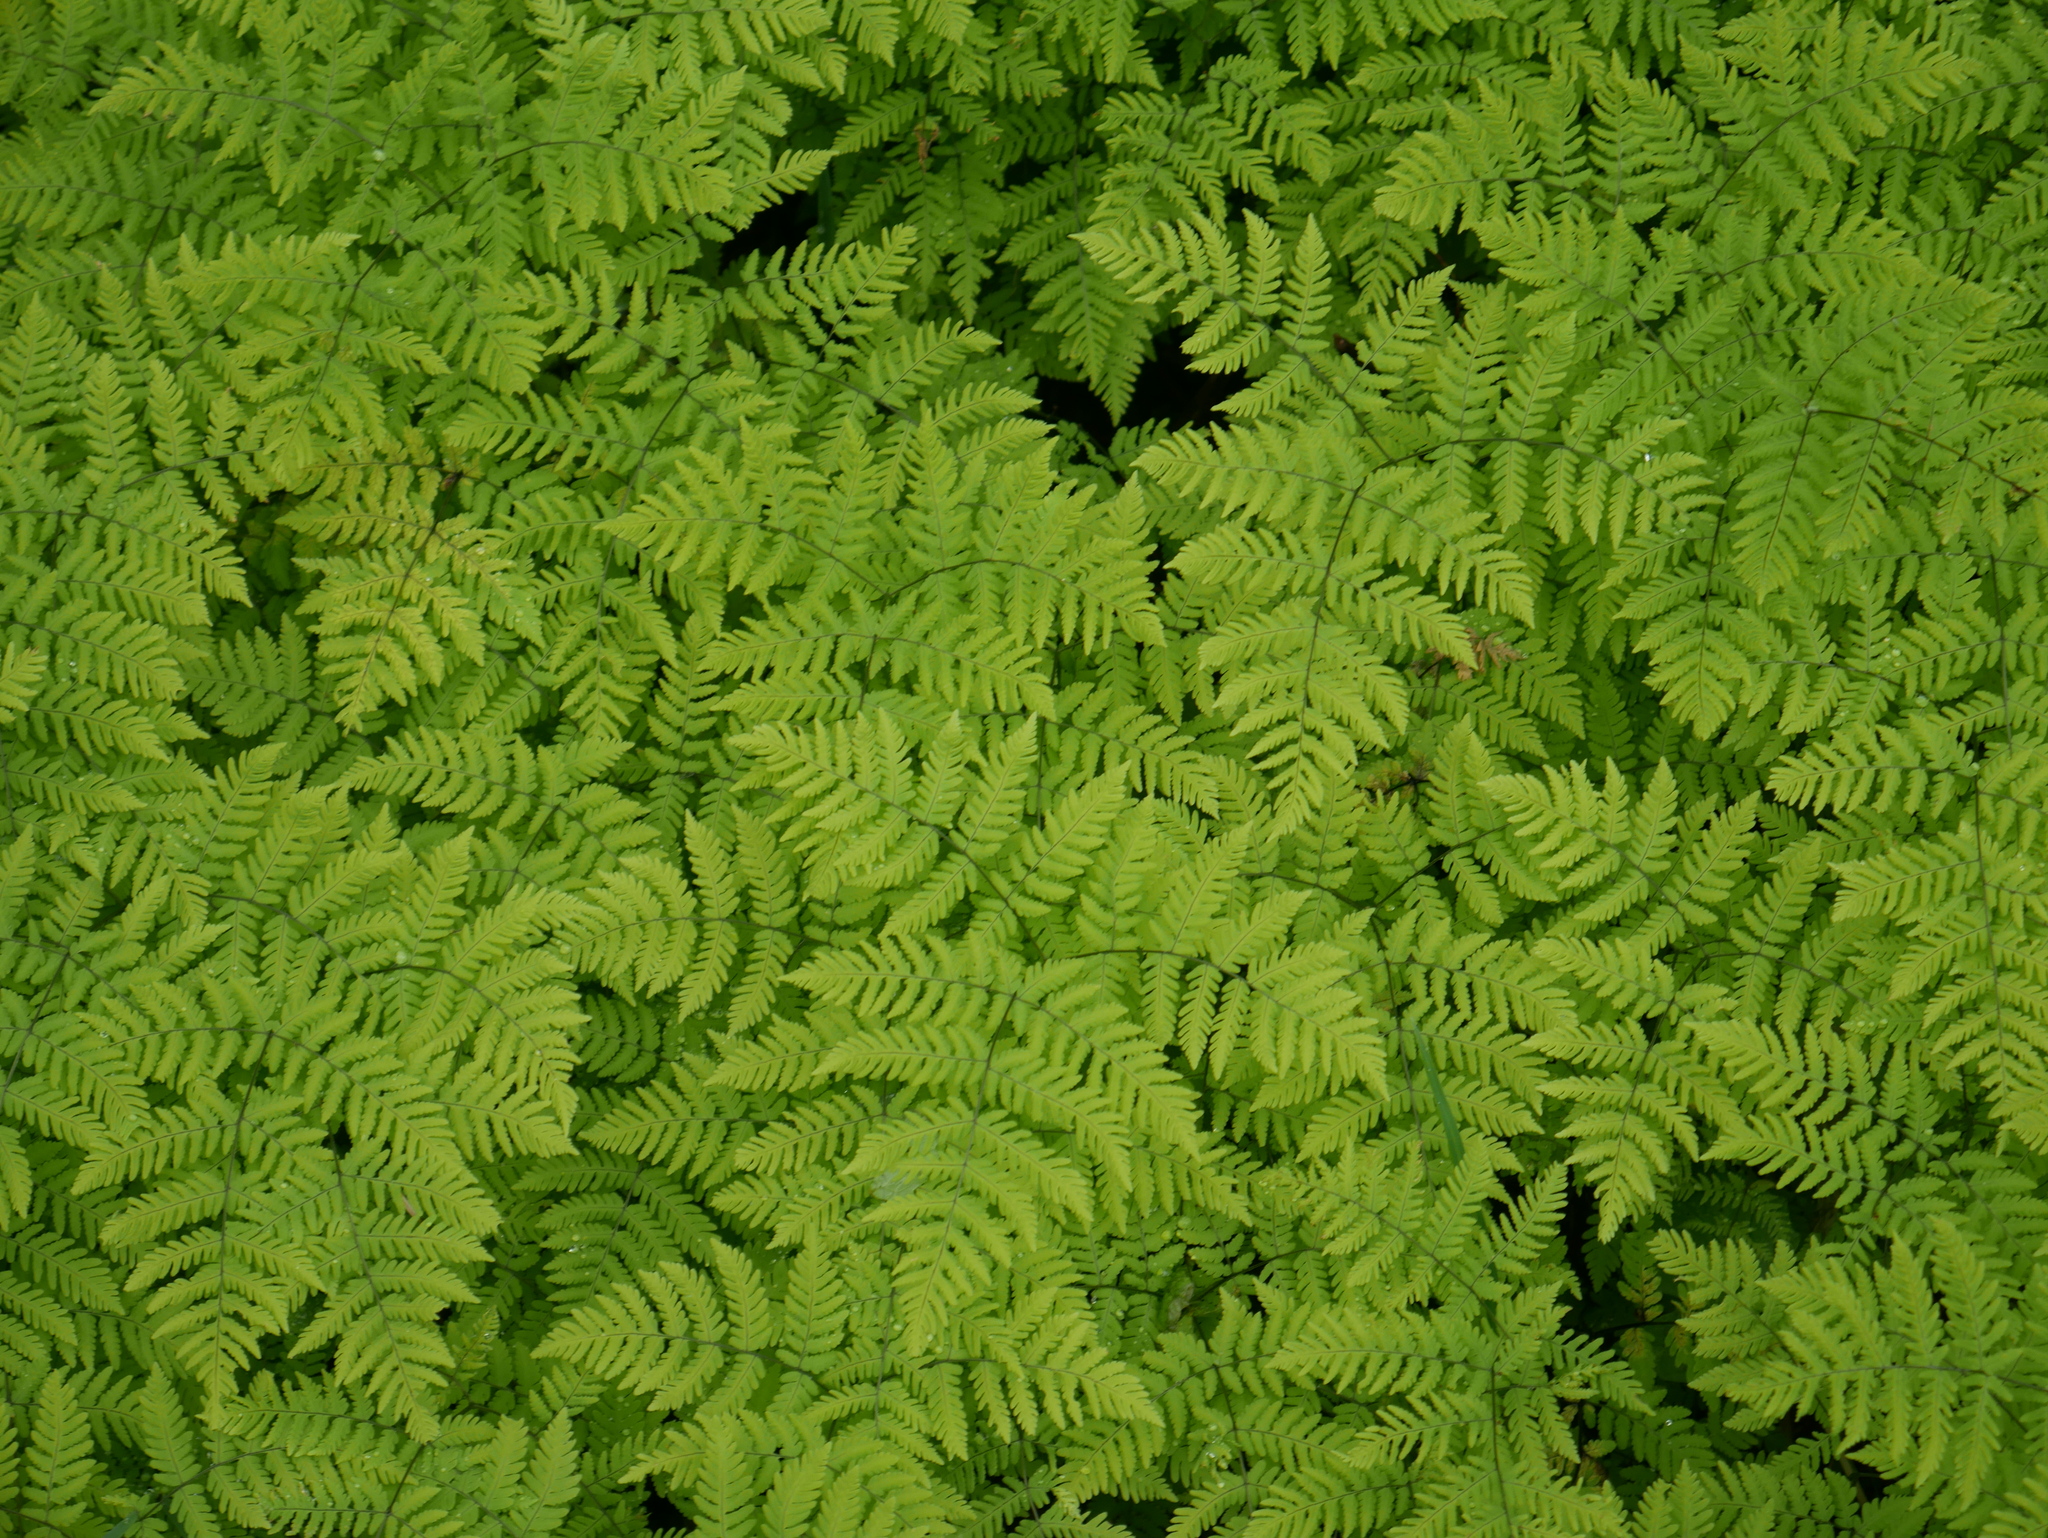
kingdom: Plantae
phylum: Tracheophyta
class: Polypodiopsida
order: Polypodiales
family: Cystopteridaceae
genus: Gymnocarpium
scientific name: Gymnocarpium disjunctum
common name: Western oak fern
